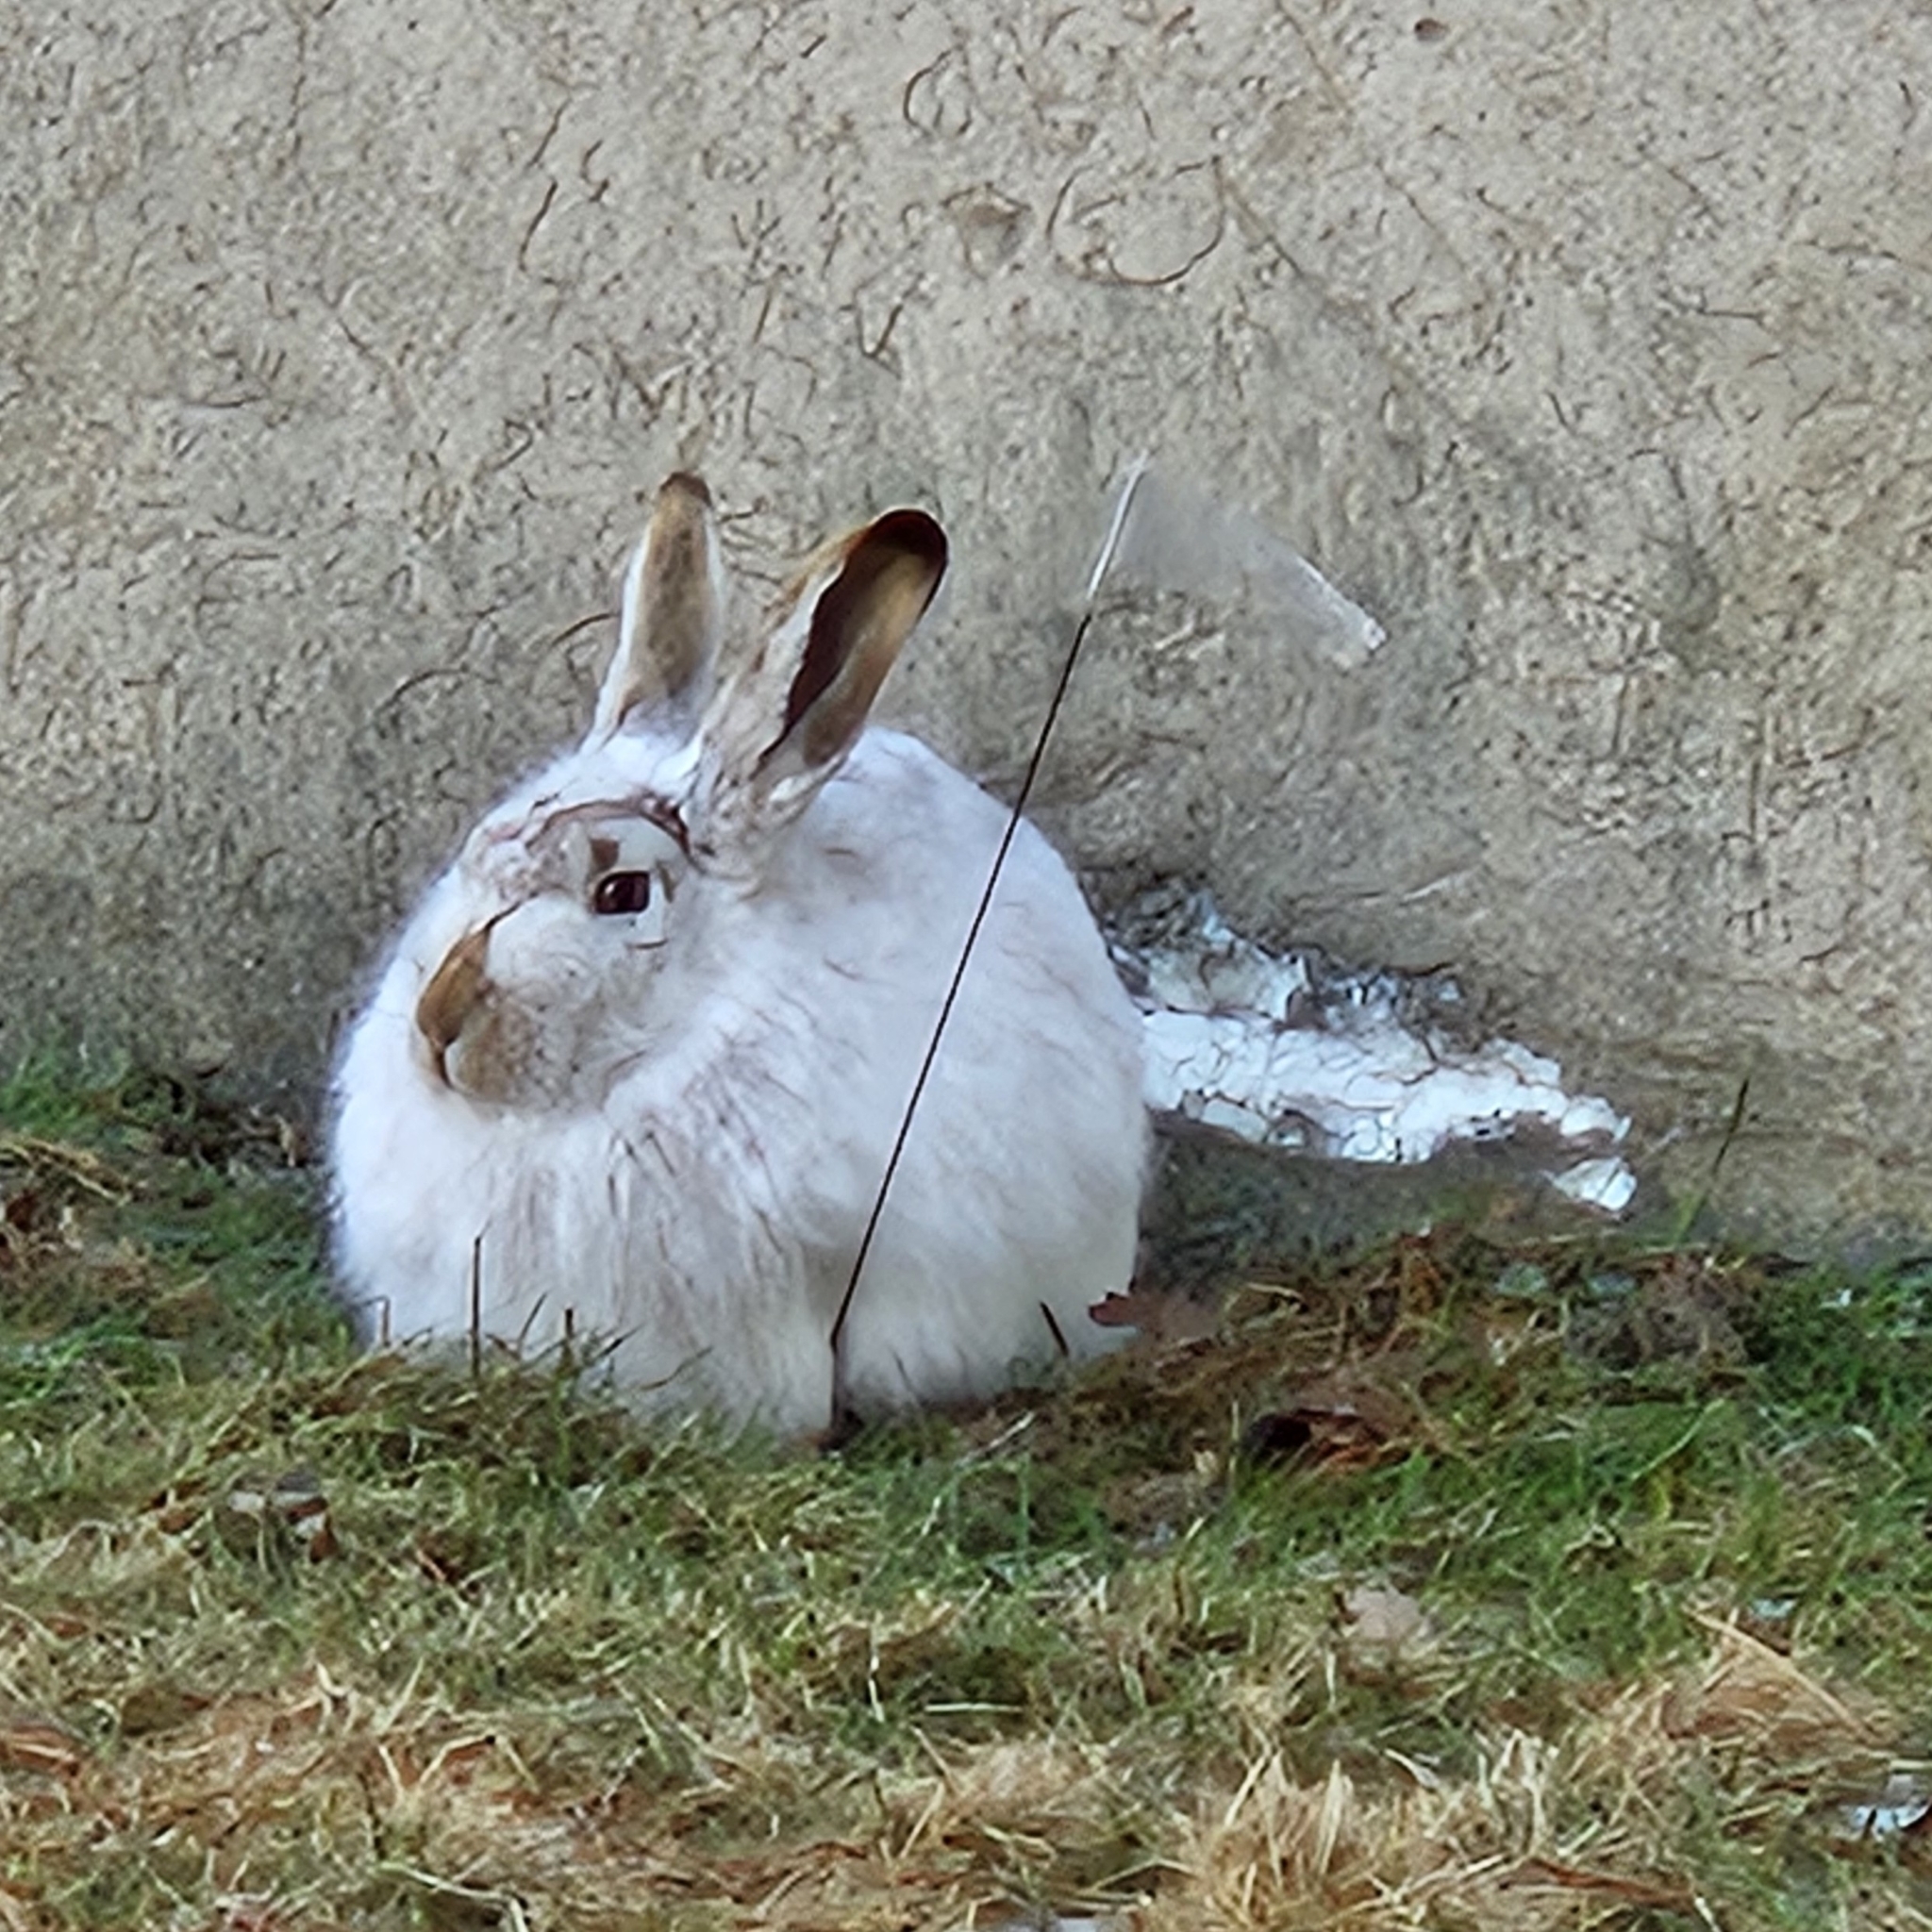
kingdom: Animalia
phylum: Chordata
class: Mammalia
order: Lagomorpha
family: Leporidae
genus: Lepus
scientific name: Lepus townsendii
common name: White-tailed jackrabbit
